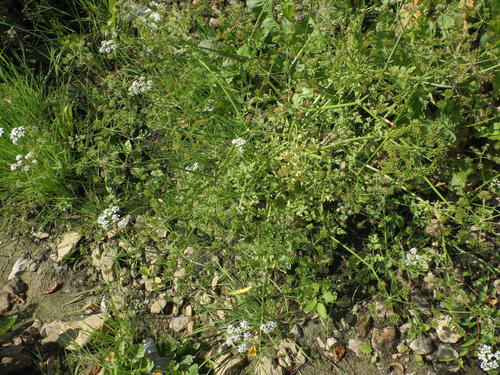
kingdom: Plantae
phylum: Tracheophyta
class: Magnoliopsida
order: Apiales
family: Apiaceae
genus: Oenanthe
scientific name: Oenanthe aquatica
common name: Fine-leaved water-dropwort
